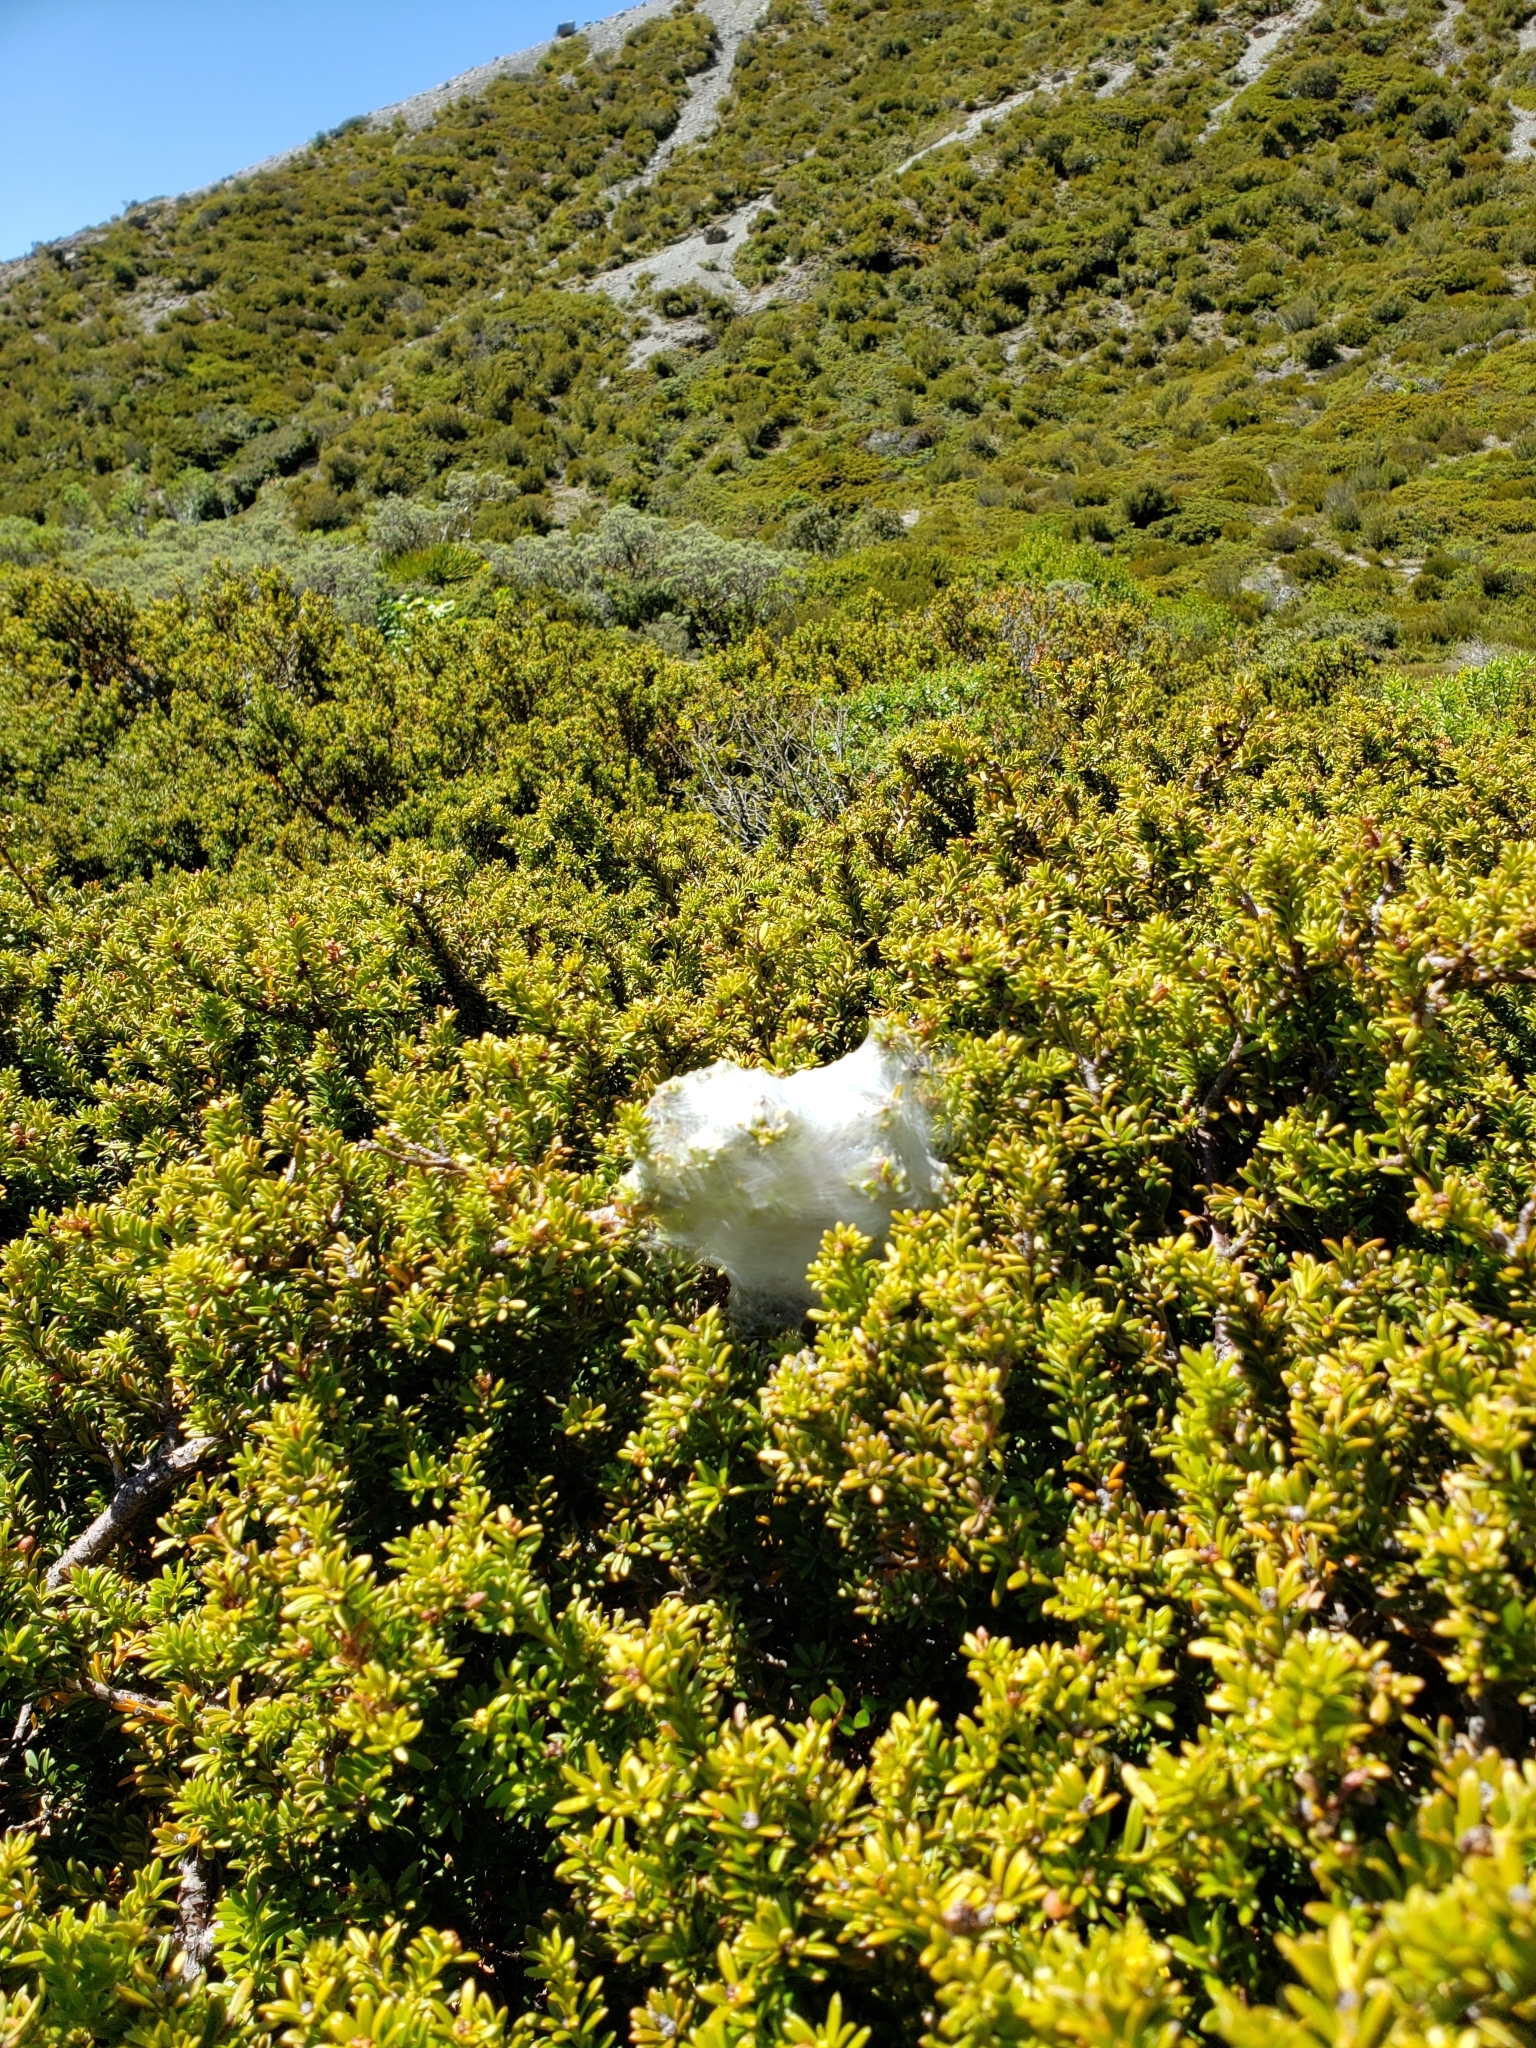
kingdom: Animalia
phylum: Arthropoda
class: Arachnida
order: Araneae
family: Pisauridae
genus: Dolomedes
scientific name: Dolomedes minor
